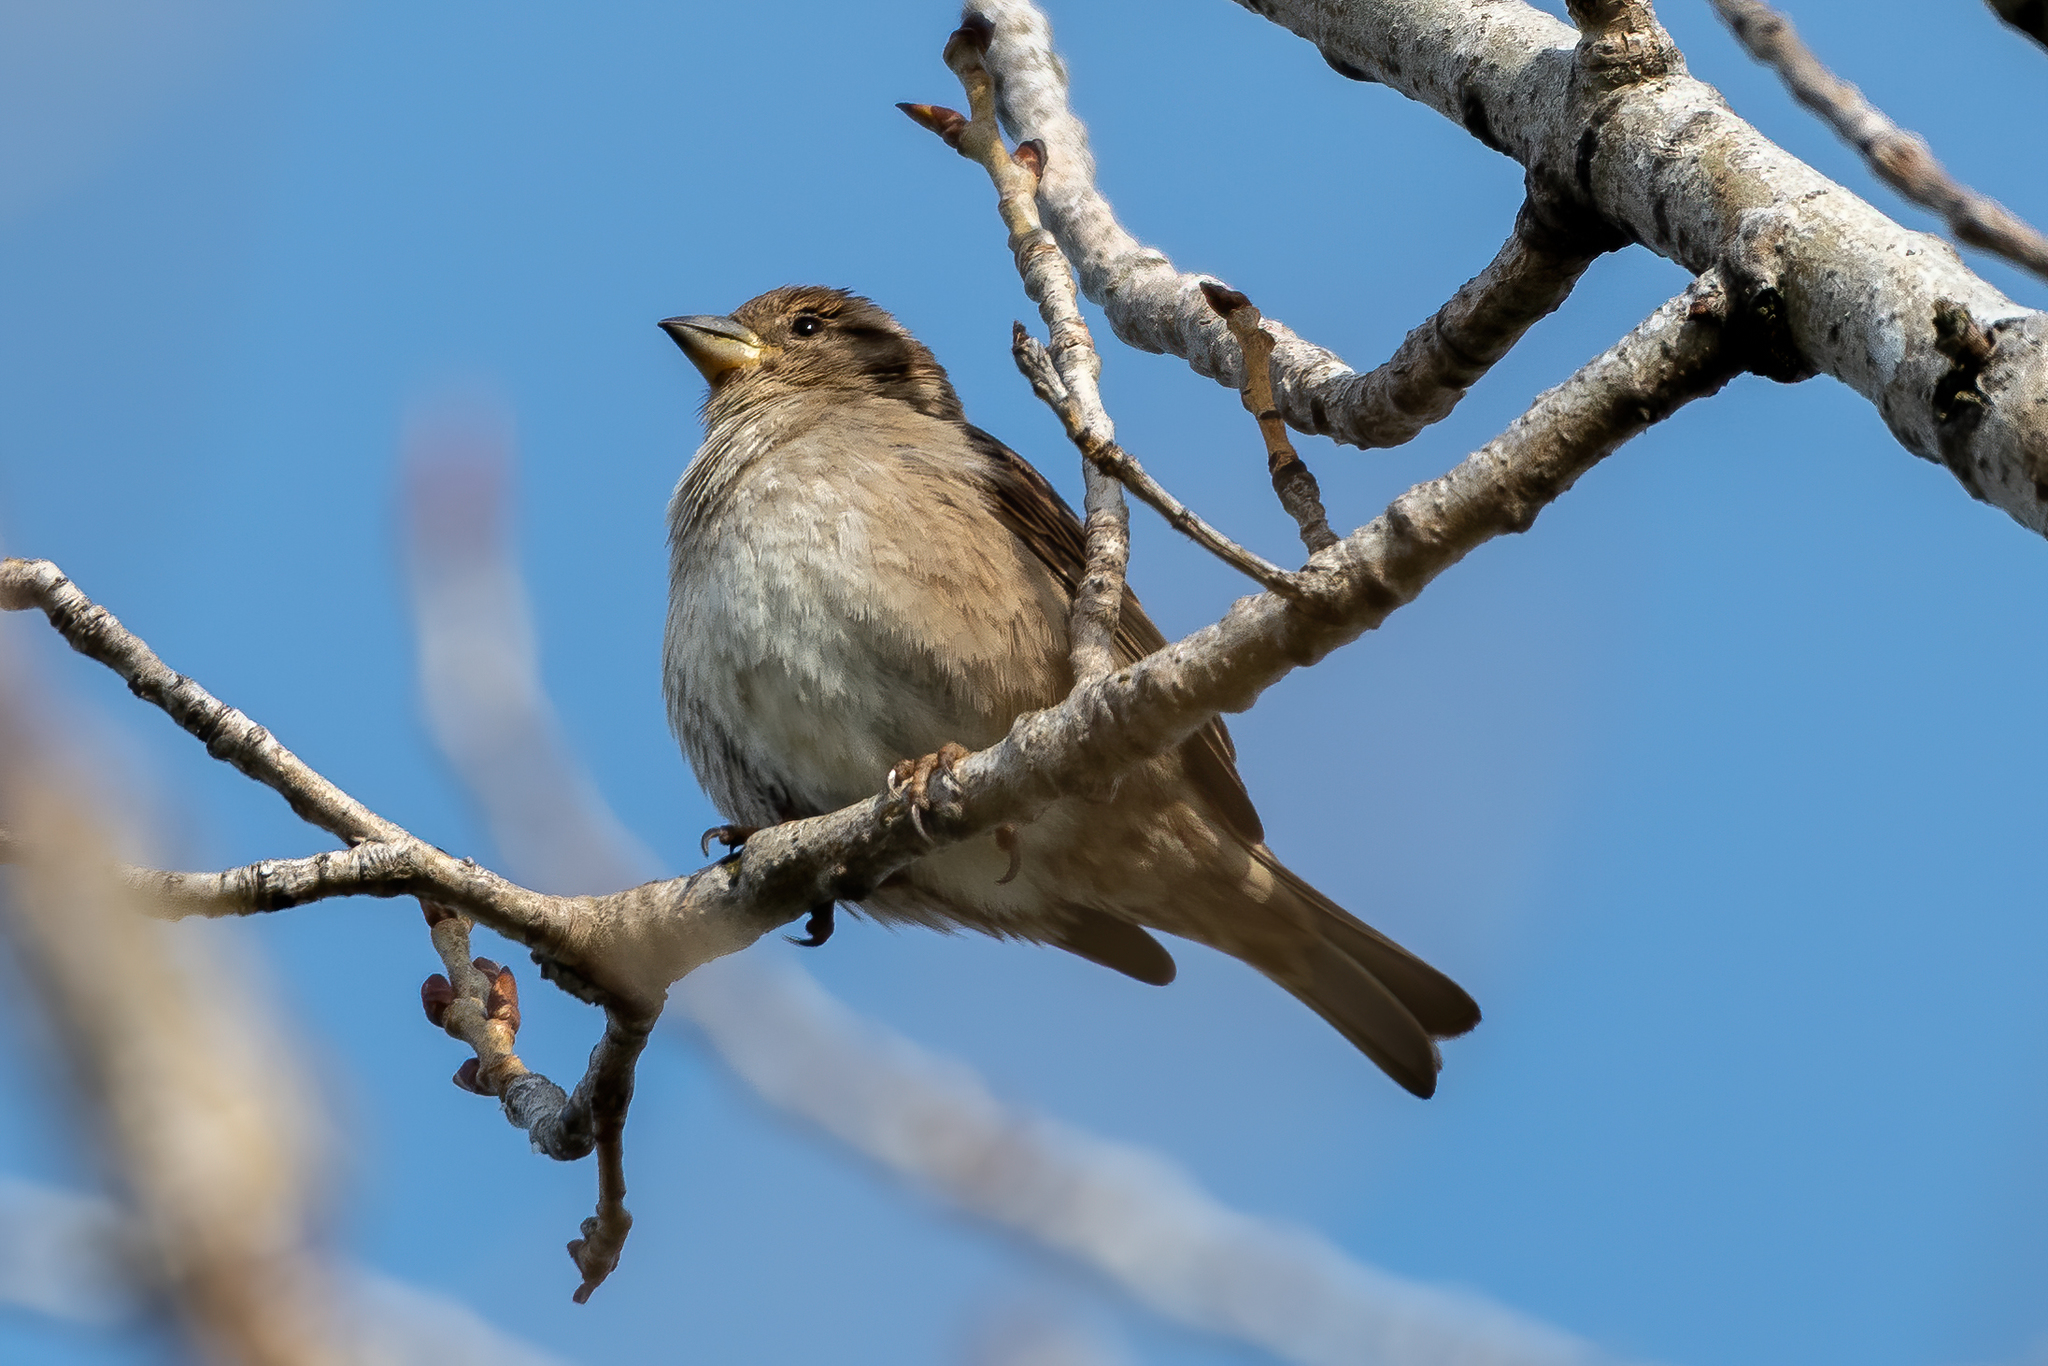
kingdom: Animalia
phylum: Chordata
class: Aves
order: Passeriformes
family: Passeridae
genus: Passer
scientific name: Passer domesticus
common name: House sparrow
